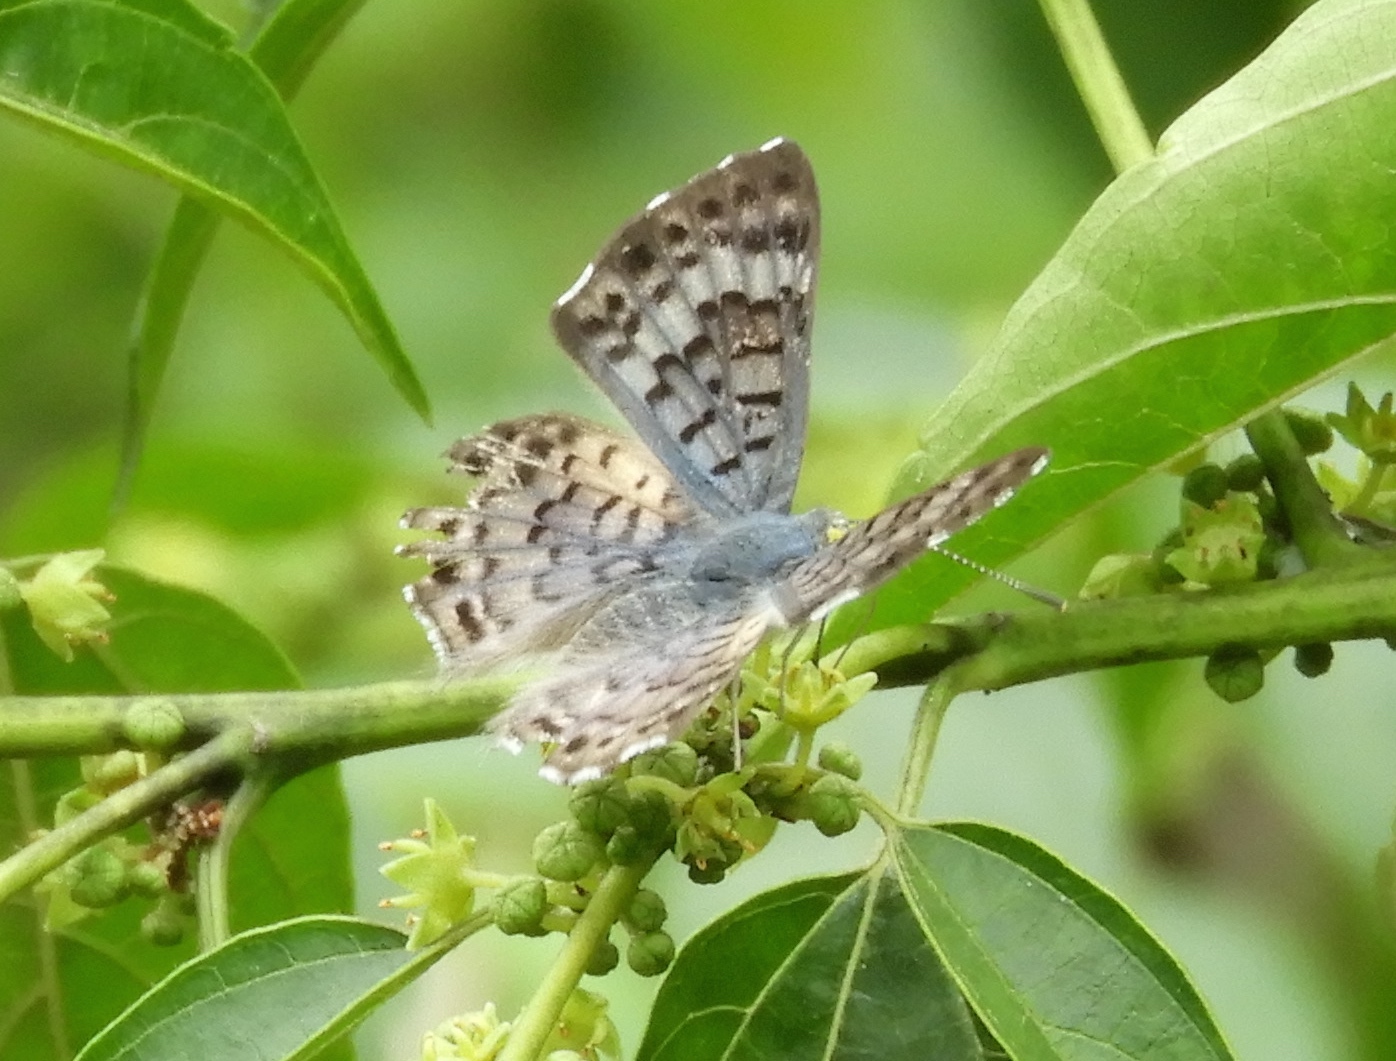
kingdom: Animalia
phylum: Arthropoda
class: Insecta
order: Lepidoptera
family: Riodinidae
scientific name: Riodinidae
